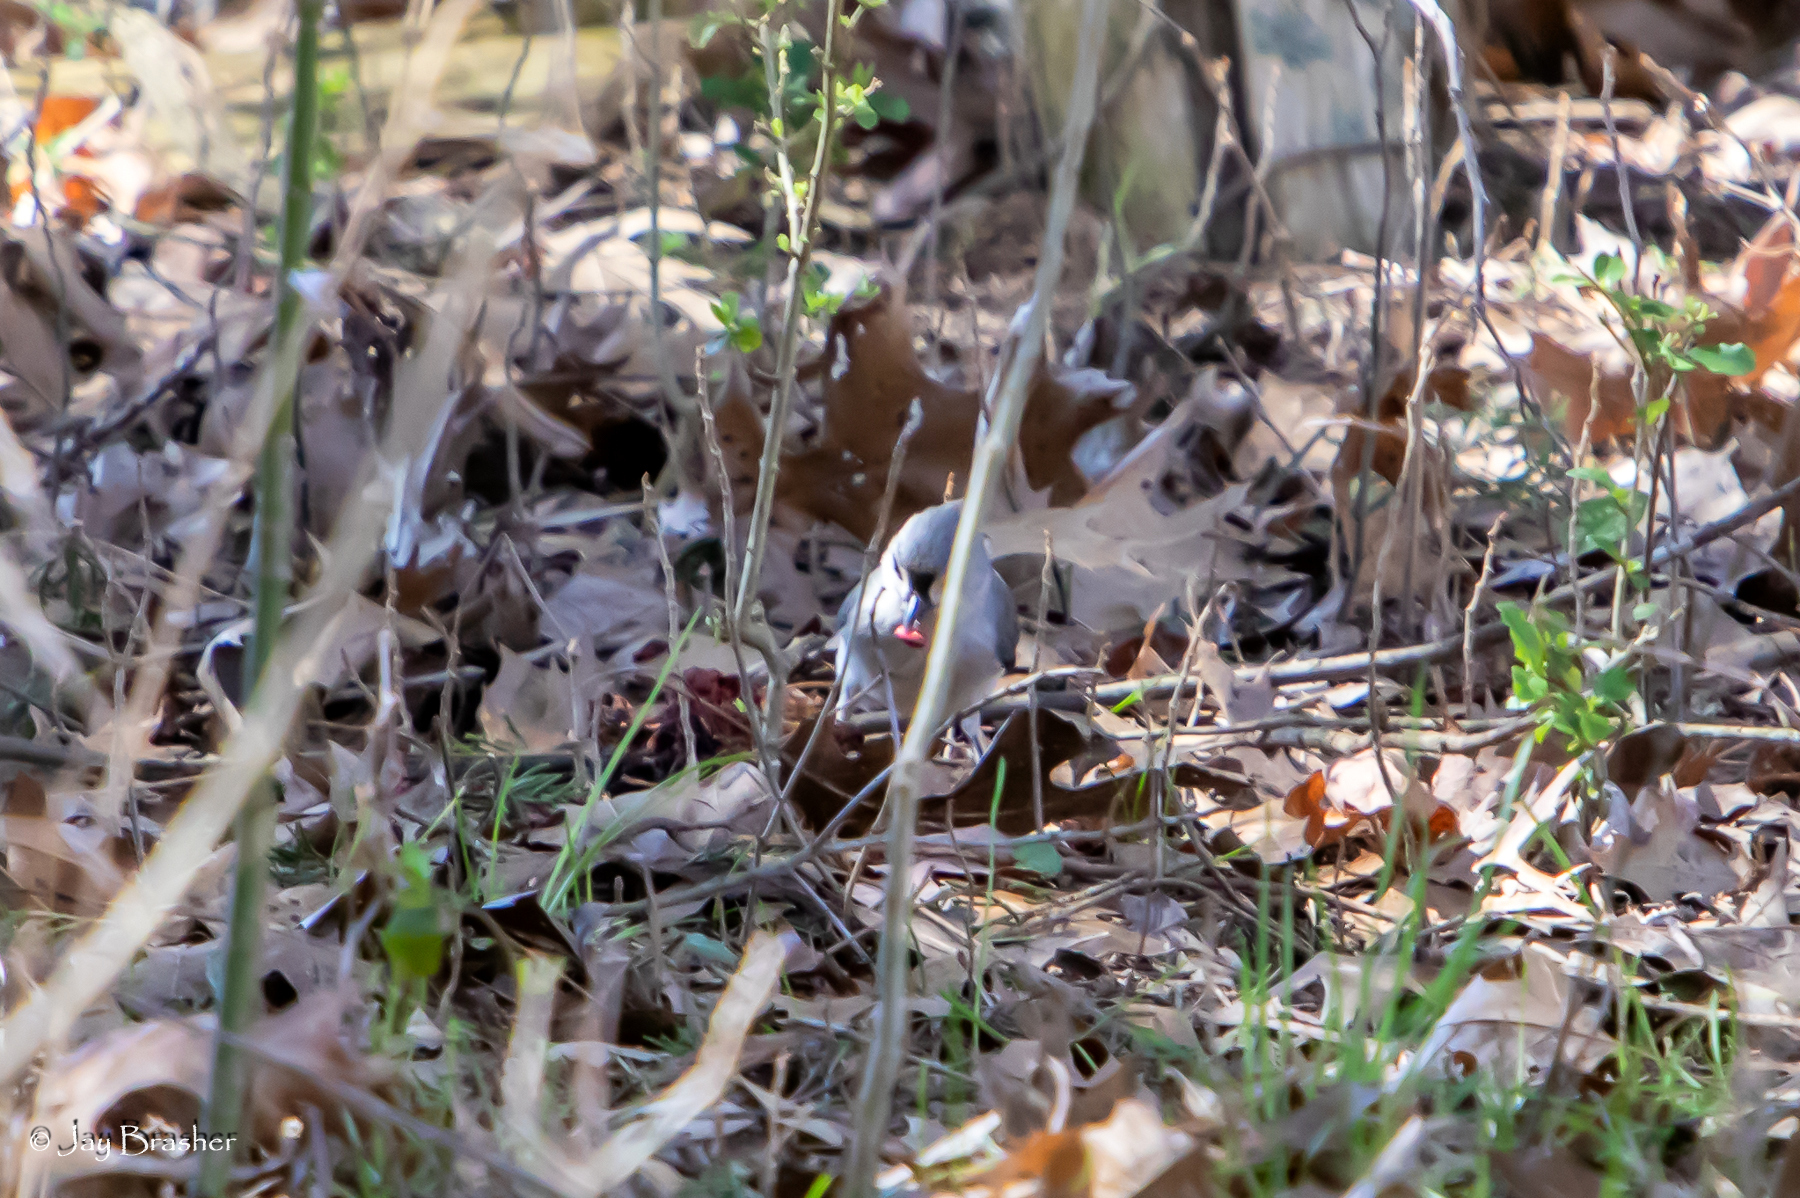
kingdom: Animalia
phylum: Chordata
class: Aves
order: Passeriformes
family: Paridae
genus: Baeolophus
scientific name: Baeolophus bicolor
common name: Tufted titmouse
